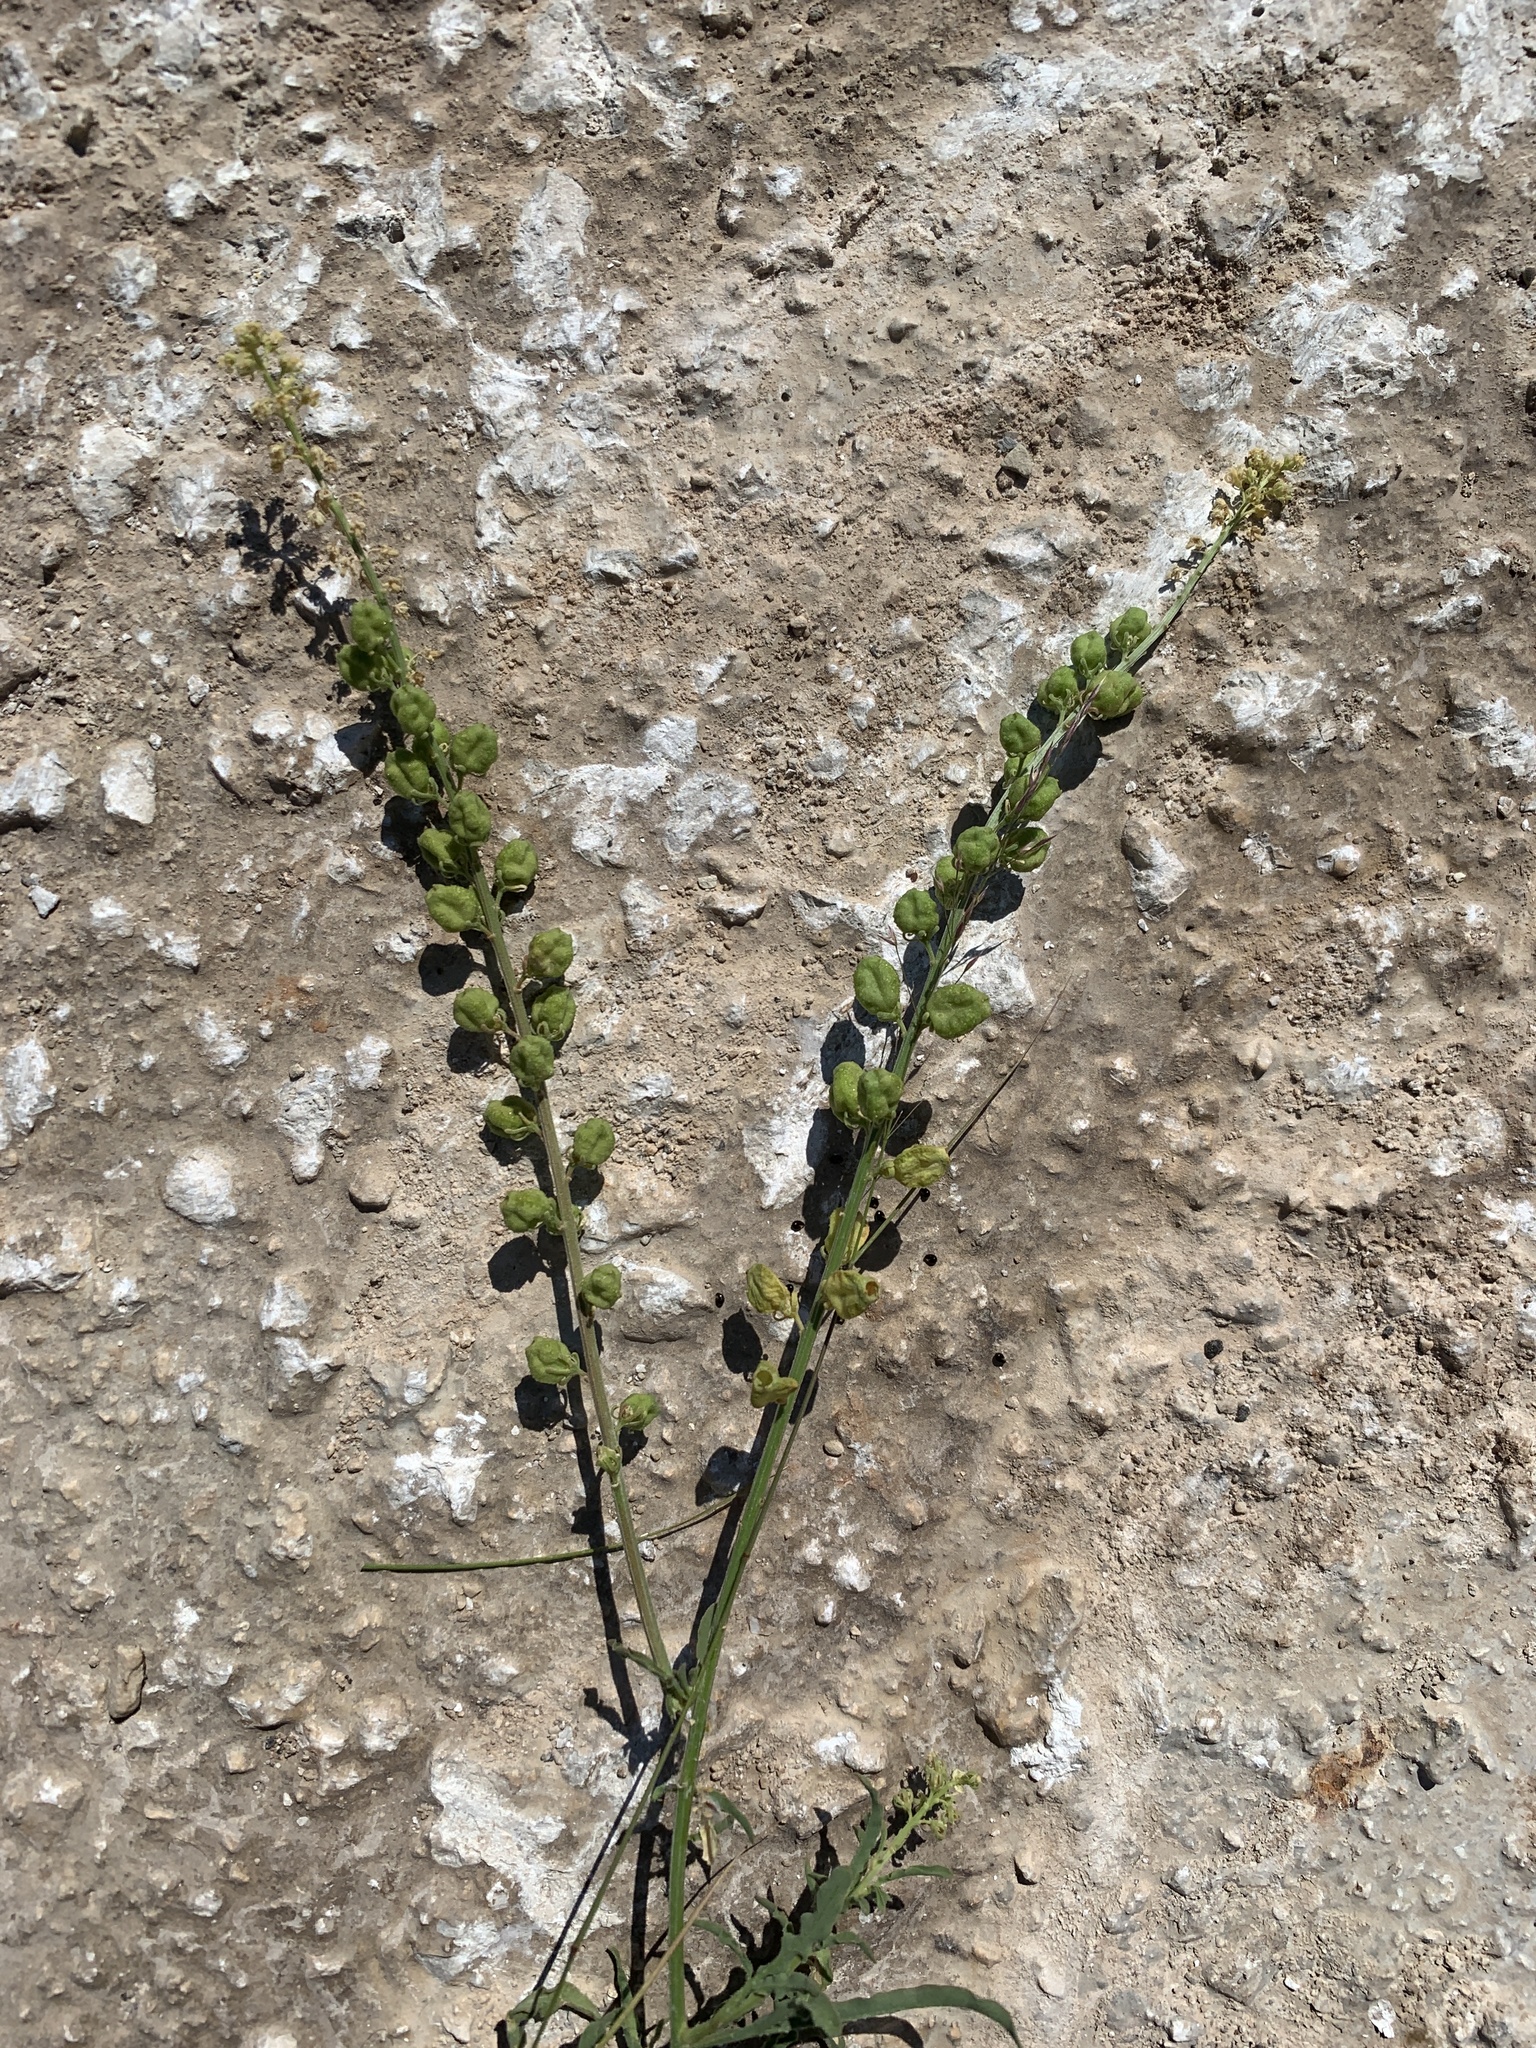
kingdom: Plantae
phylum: Tracheophyta
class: Magnoliopsida
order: Brassicales
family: Resedaceae
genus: Reseda
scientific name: Reseda lutea
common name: Wild mignonette
